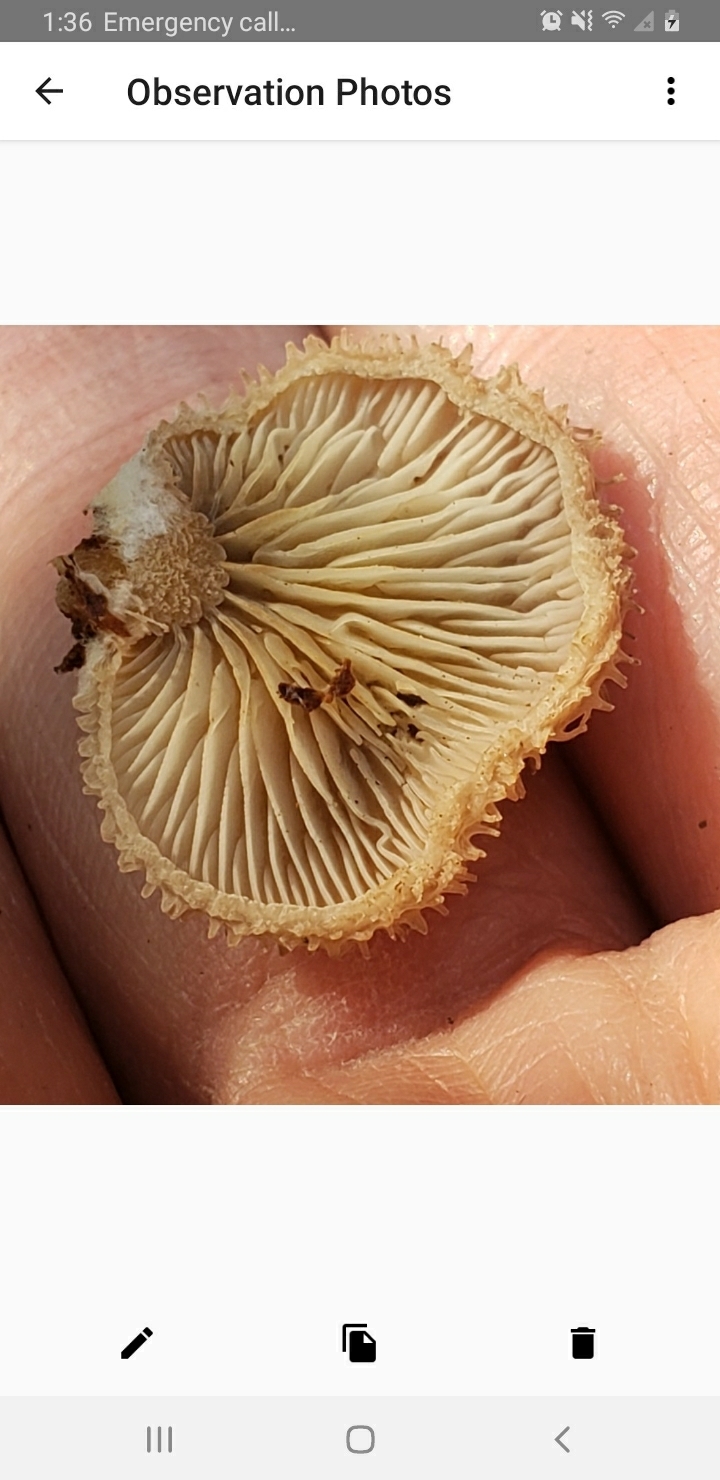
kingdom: Fungi
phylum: Basidiomycota
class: Agaricomycetes
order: Agaricales
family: Pleurotaceae
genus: Hohenbuehelia
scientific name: Hohenbuehelia mastrucata
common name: Woolly oyster
